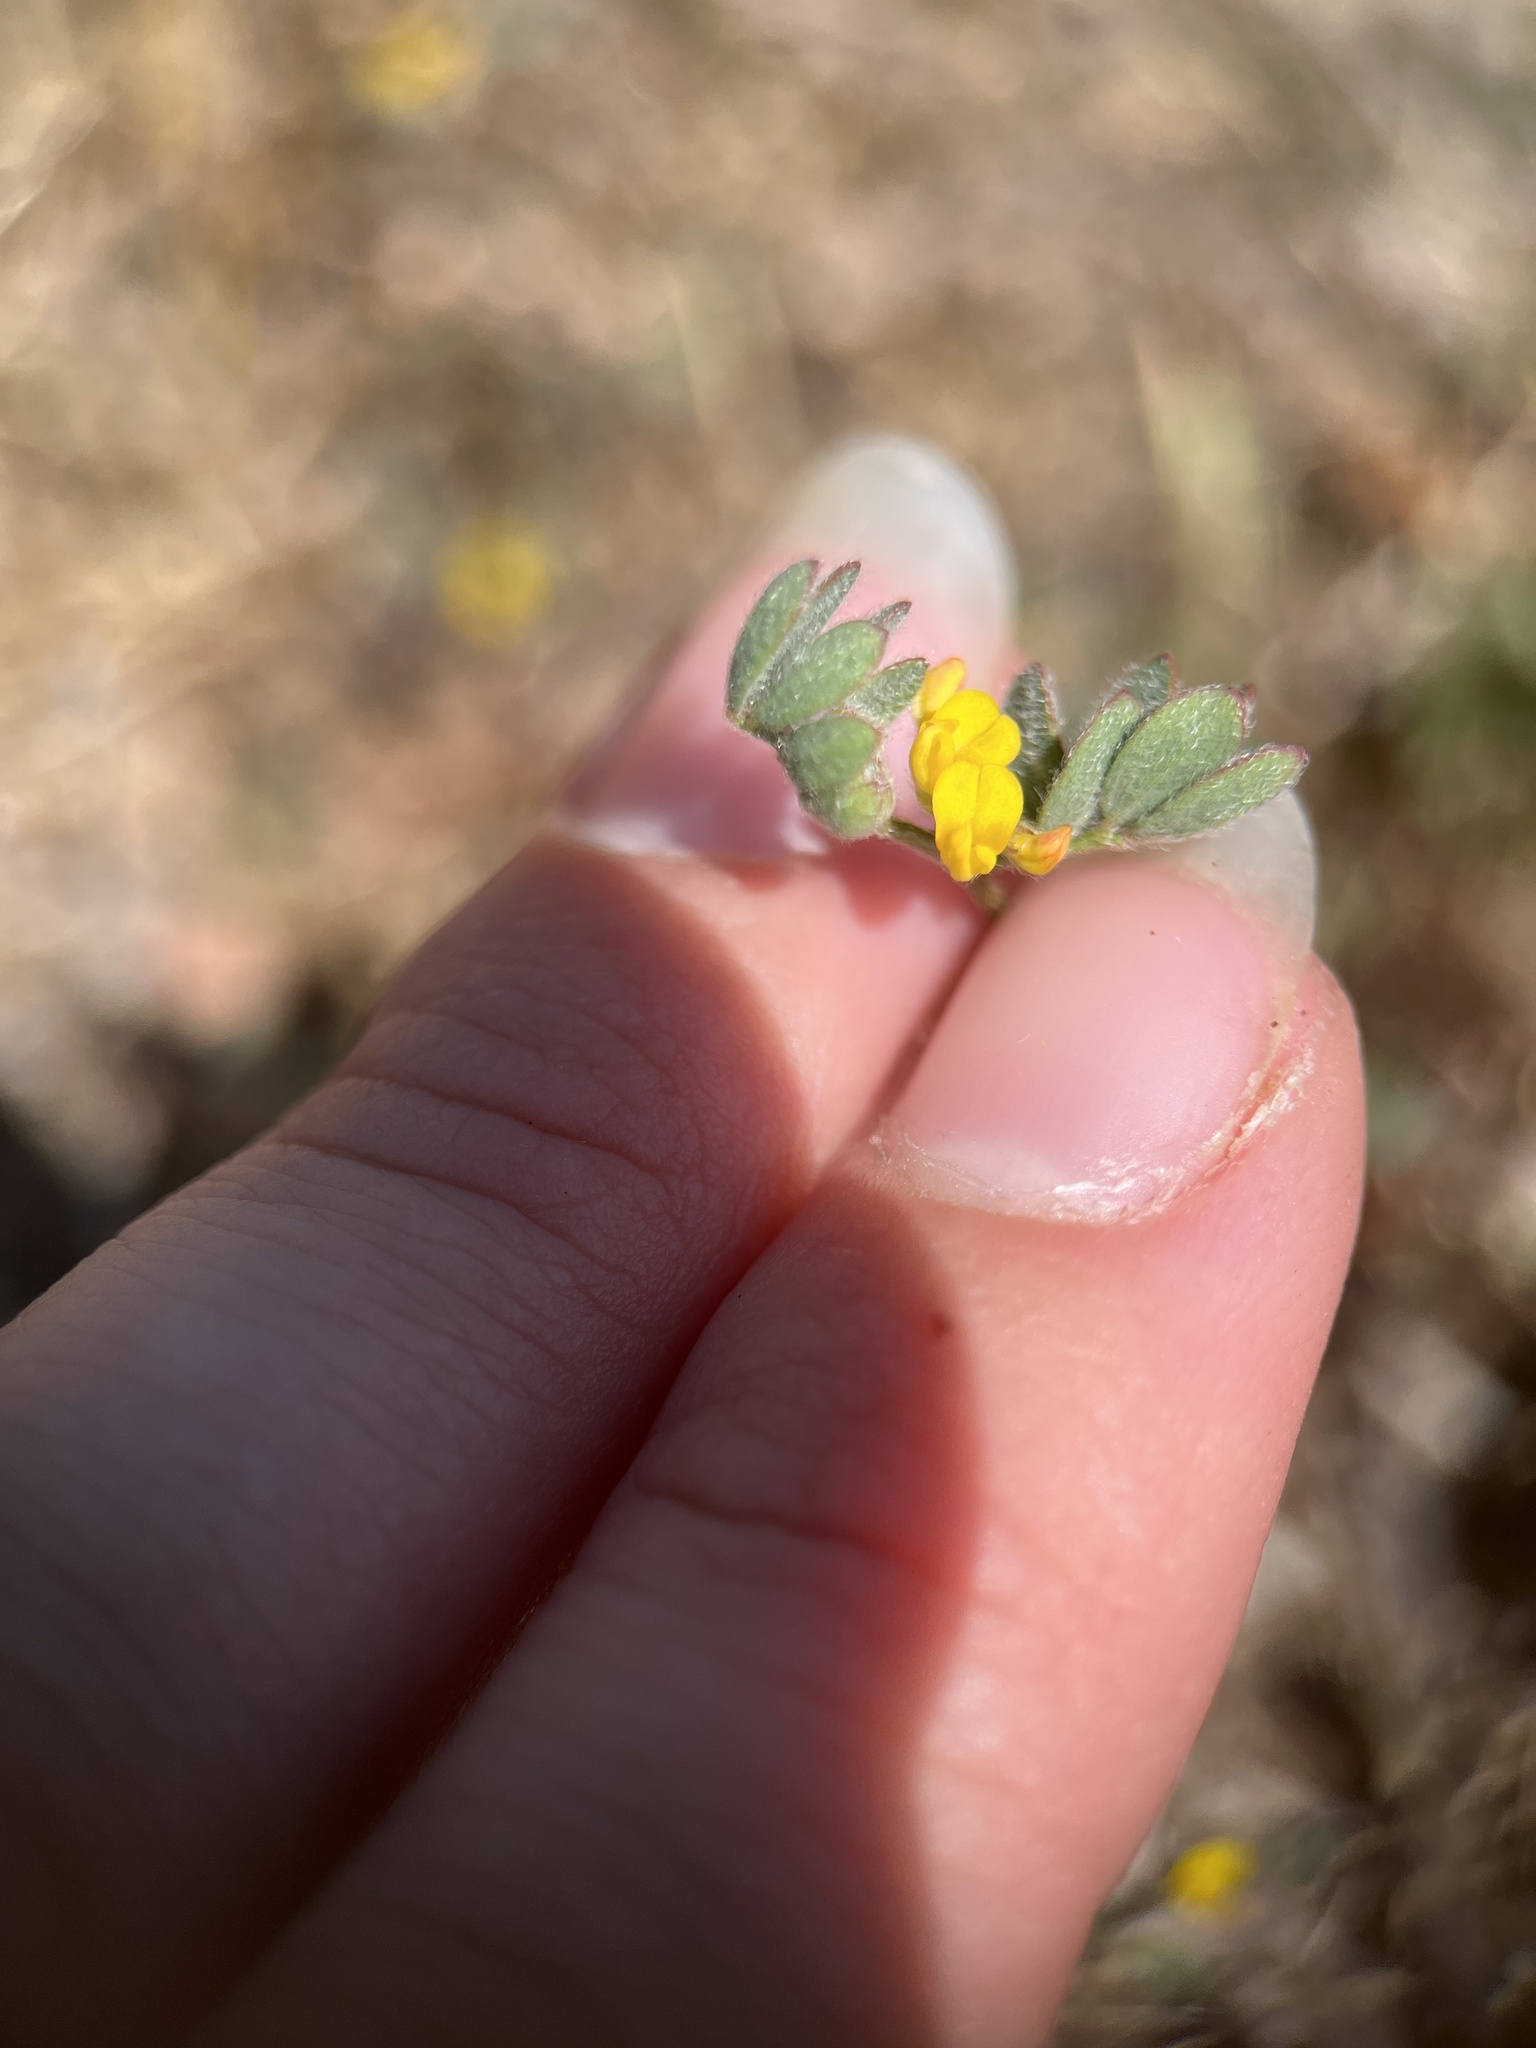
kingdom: Plantae
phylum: Tracheophyta
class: Magnoliopsida
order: Fabales
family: Fabaceae
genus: Acmispon
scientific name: Acmispon micranthus
